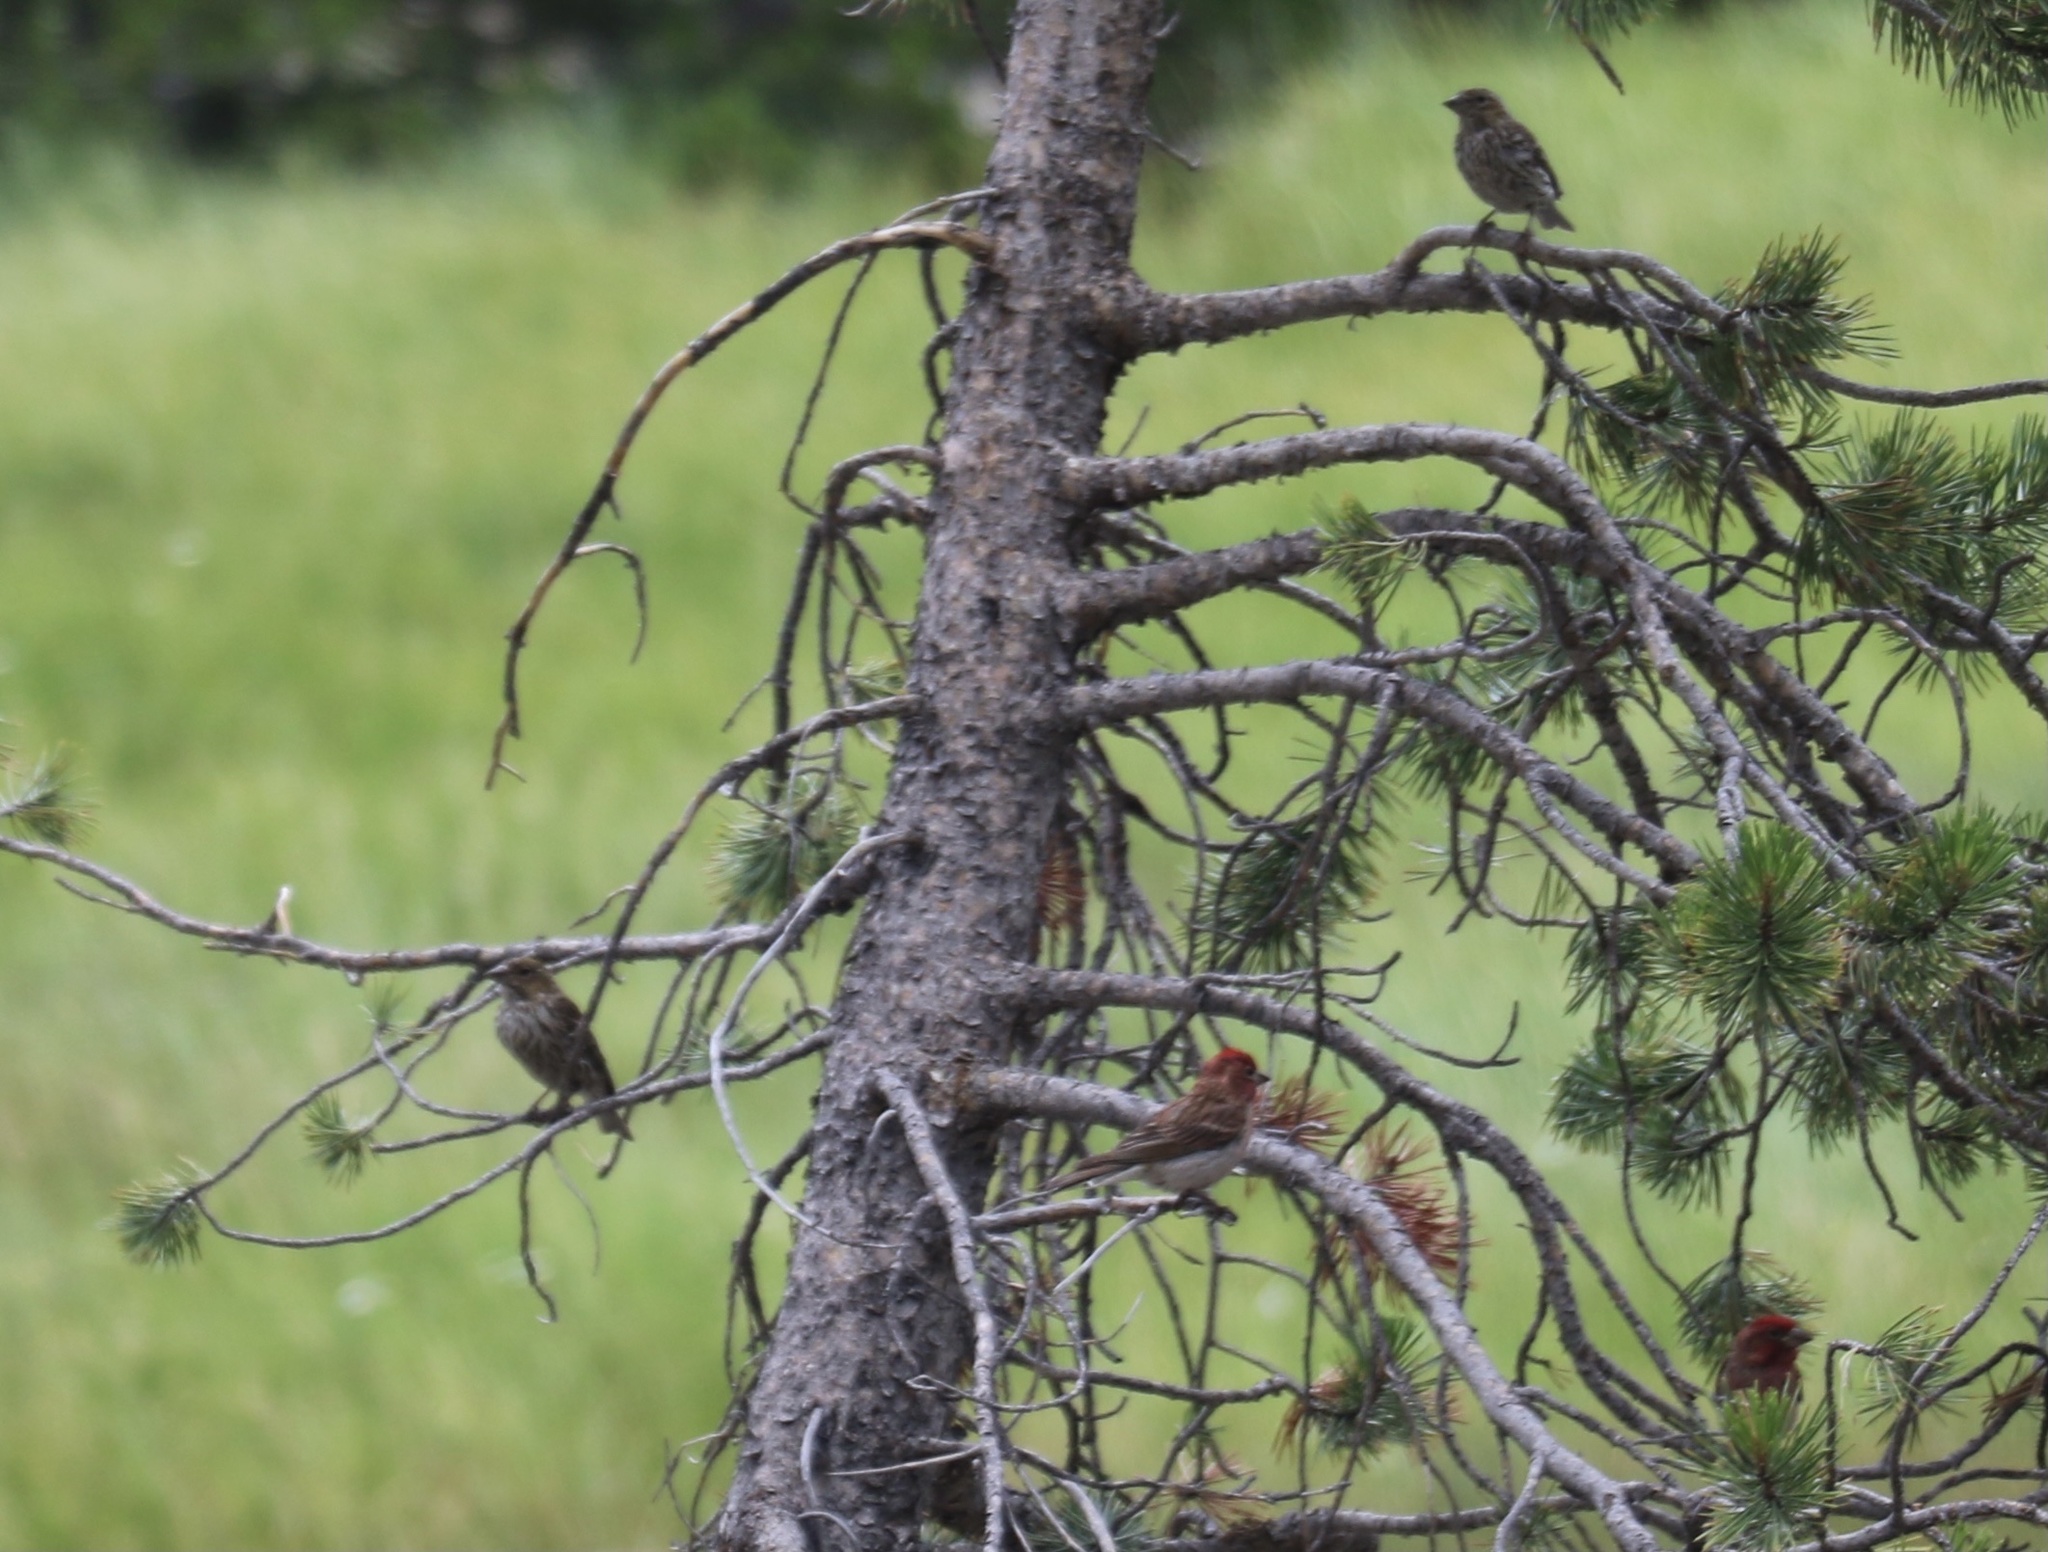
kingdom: Animalia
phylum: Chordata
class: Aves
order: Passeriformes
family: Fringillidae
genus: Haemorhous
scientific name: Haemorhous cassinii
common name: Cassin's finch
